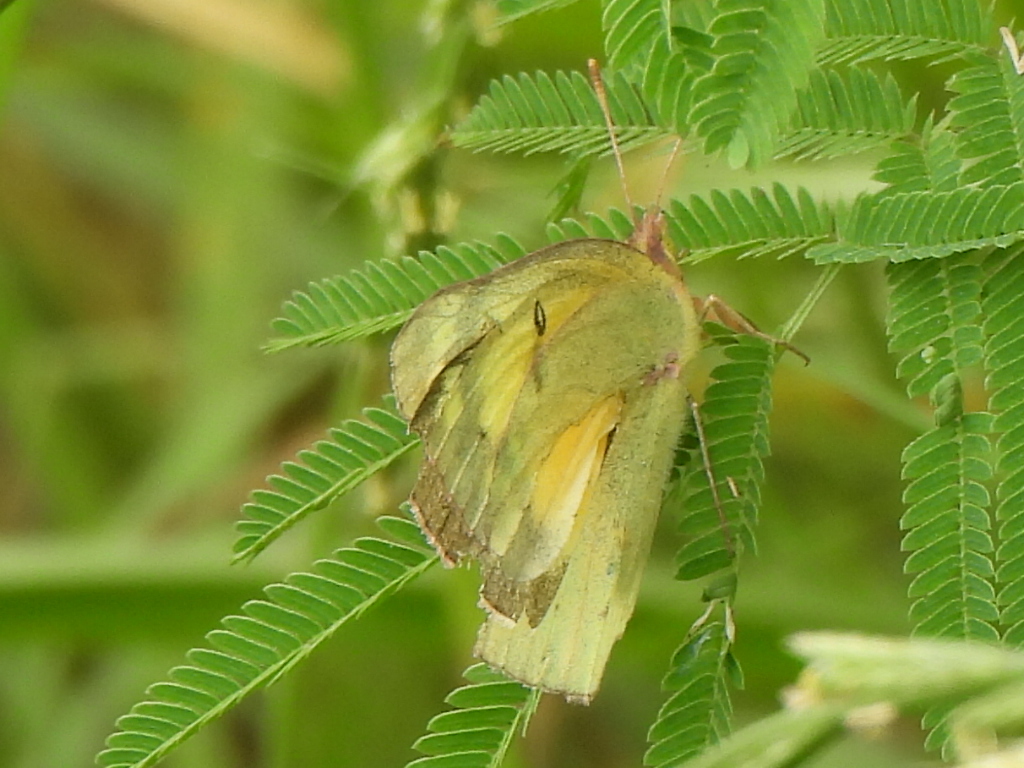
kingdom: Animalia
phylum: Arthropoda
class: Insecta
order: Lepidoptera
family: Pieridae
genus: Colias
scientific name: Colias eurytheme
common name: Alfalfa butterfly
